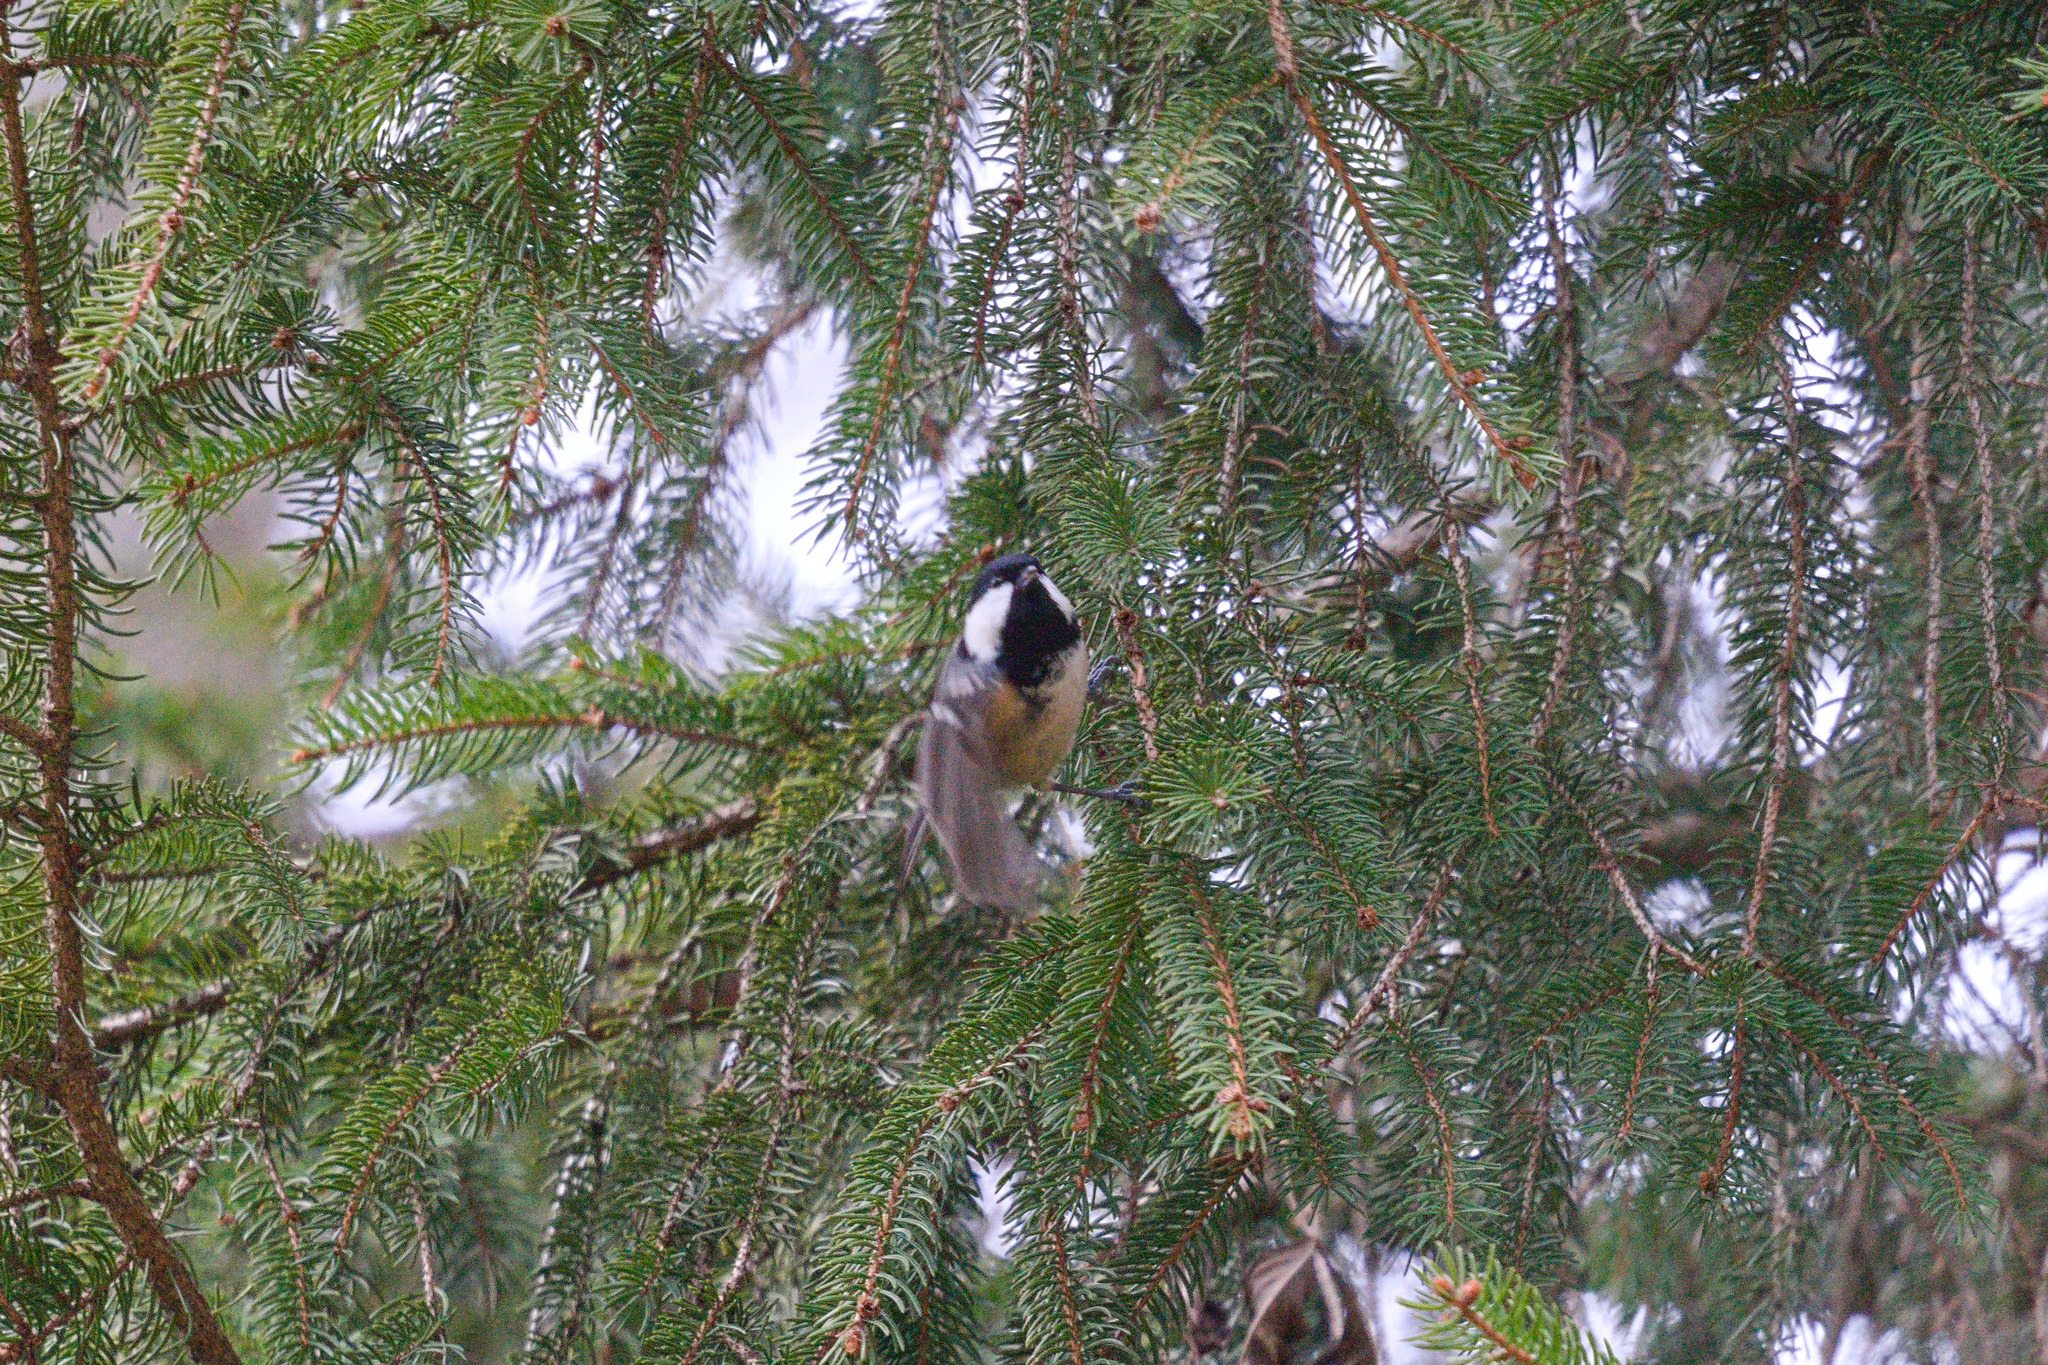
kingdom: Animalia
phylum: Chordata
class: Aves
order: Passeriformes
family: Paridae
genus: Periparus
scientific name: Periparus ater
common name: Coal tit
